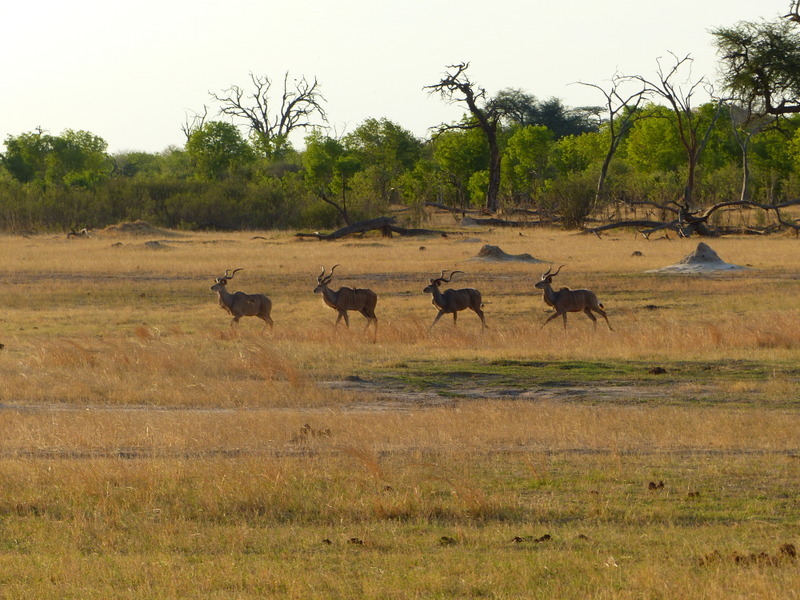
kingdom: Animalia
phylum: Chordata
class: Mammalia
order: Artiodactyla
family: Bovidae
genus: Tragelaphus
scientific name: Tragelaphus strepsiceros
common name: Greater kudu
